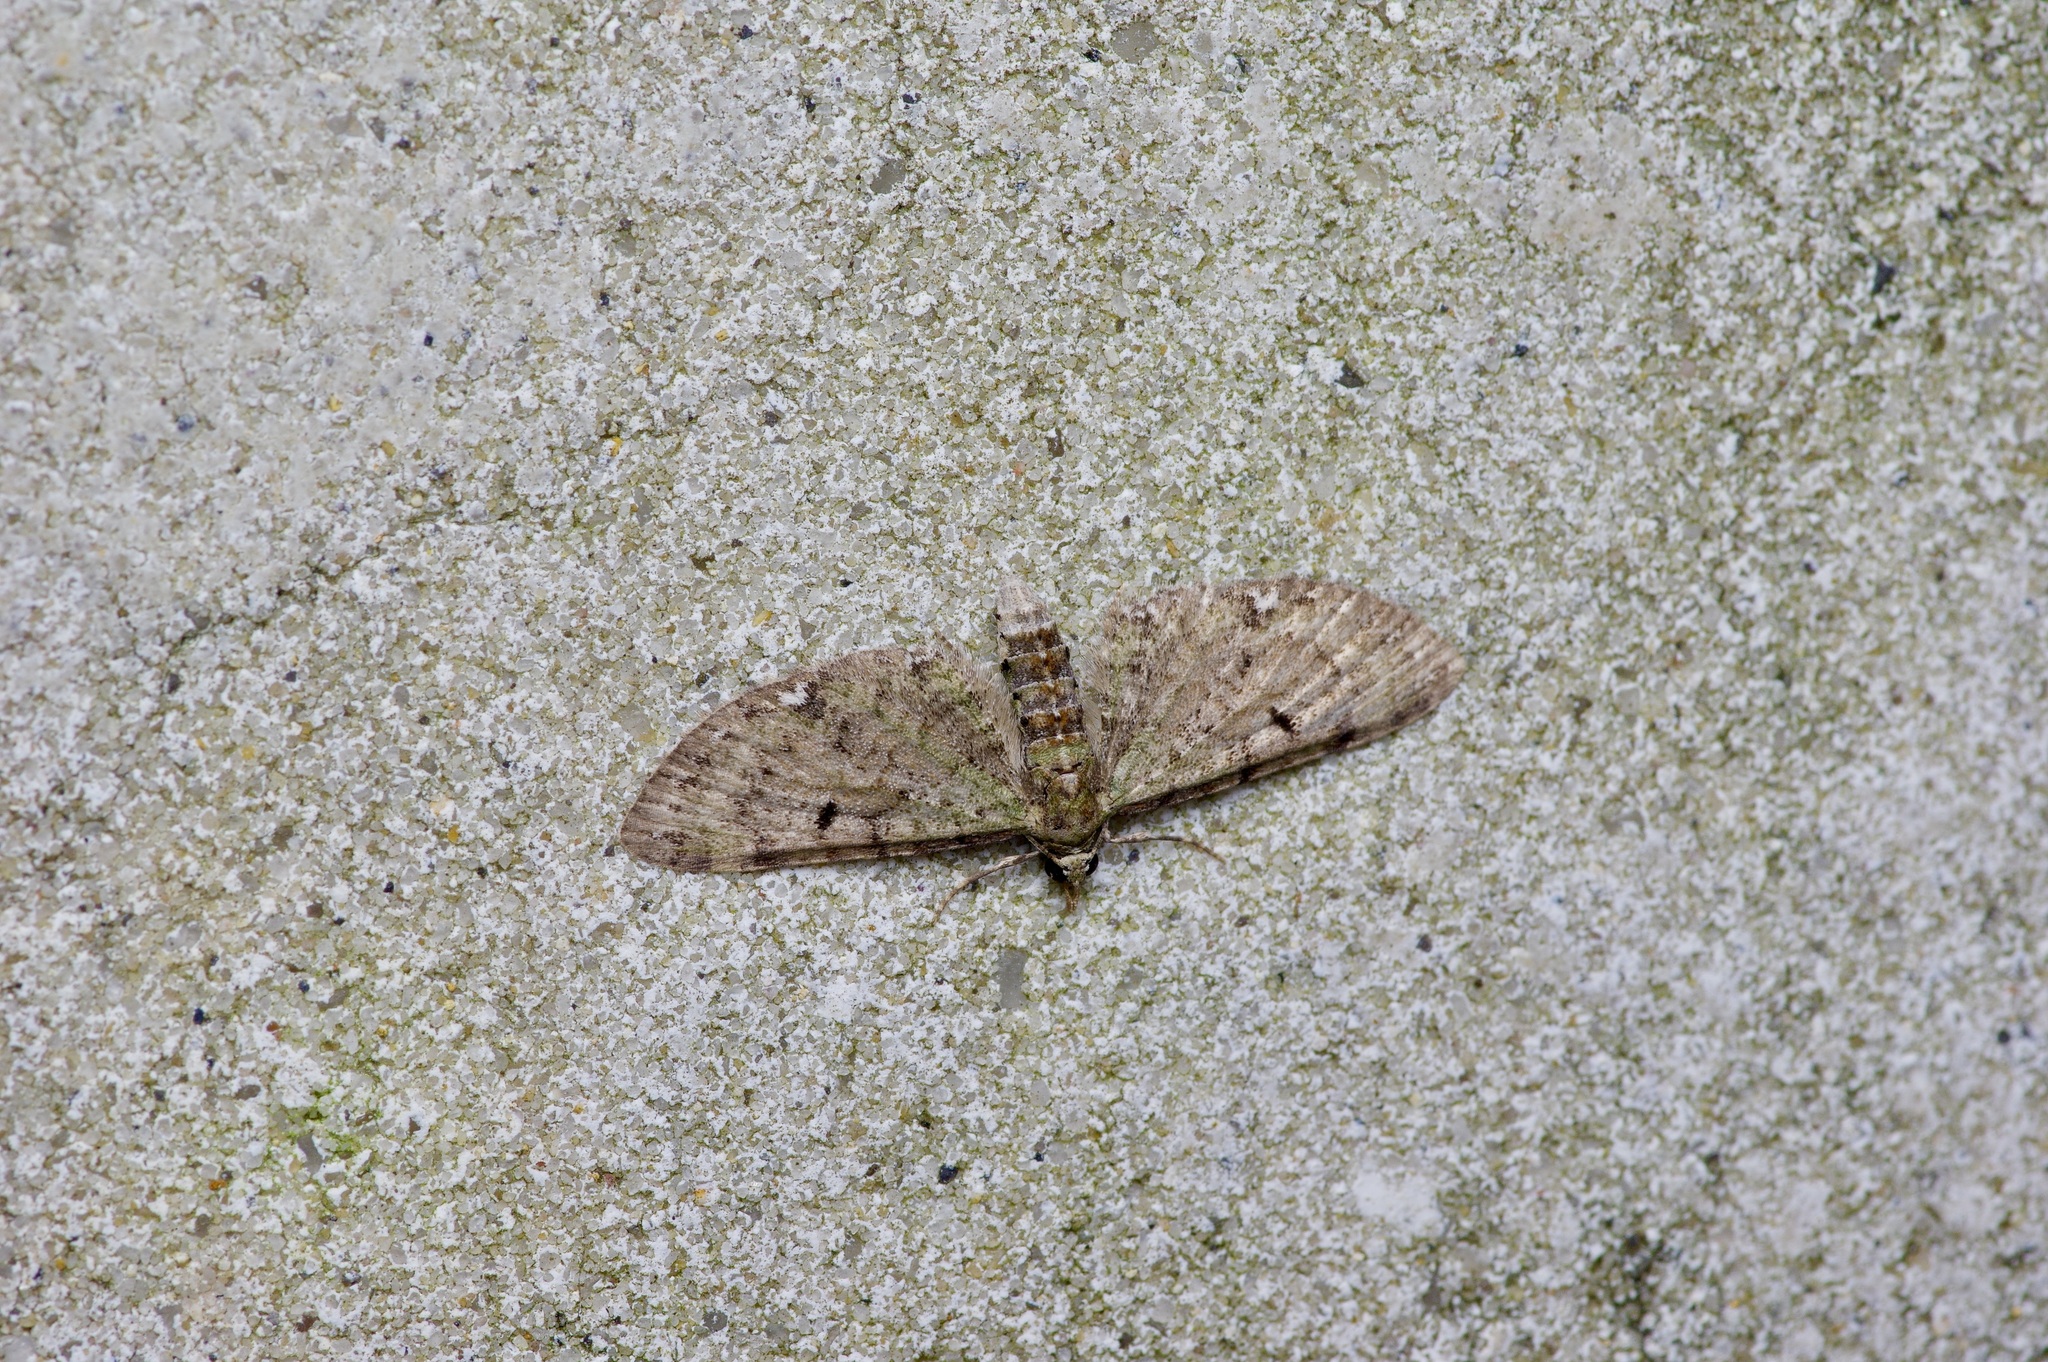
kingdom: Animalia
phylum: Arthropoda
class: Insecta
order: Lepidoptera
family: Geometridae
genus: Eupithecia
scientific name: Eupithecia miserulata
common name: Common eupithecia
